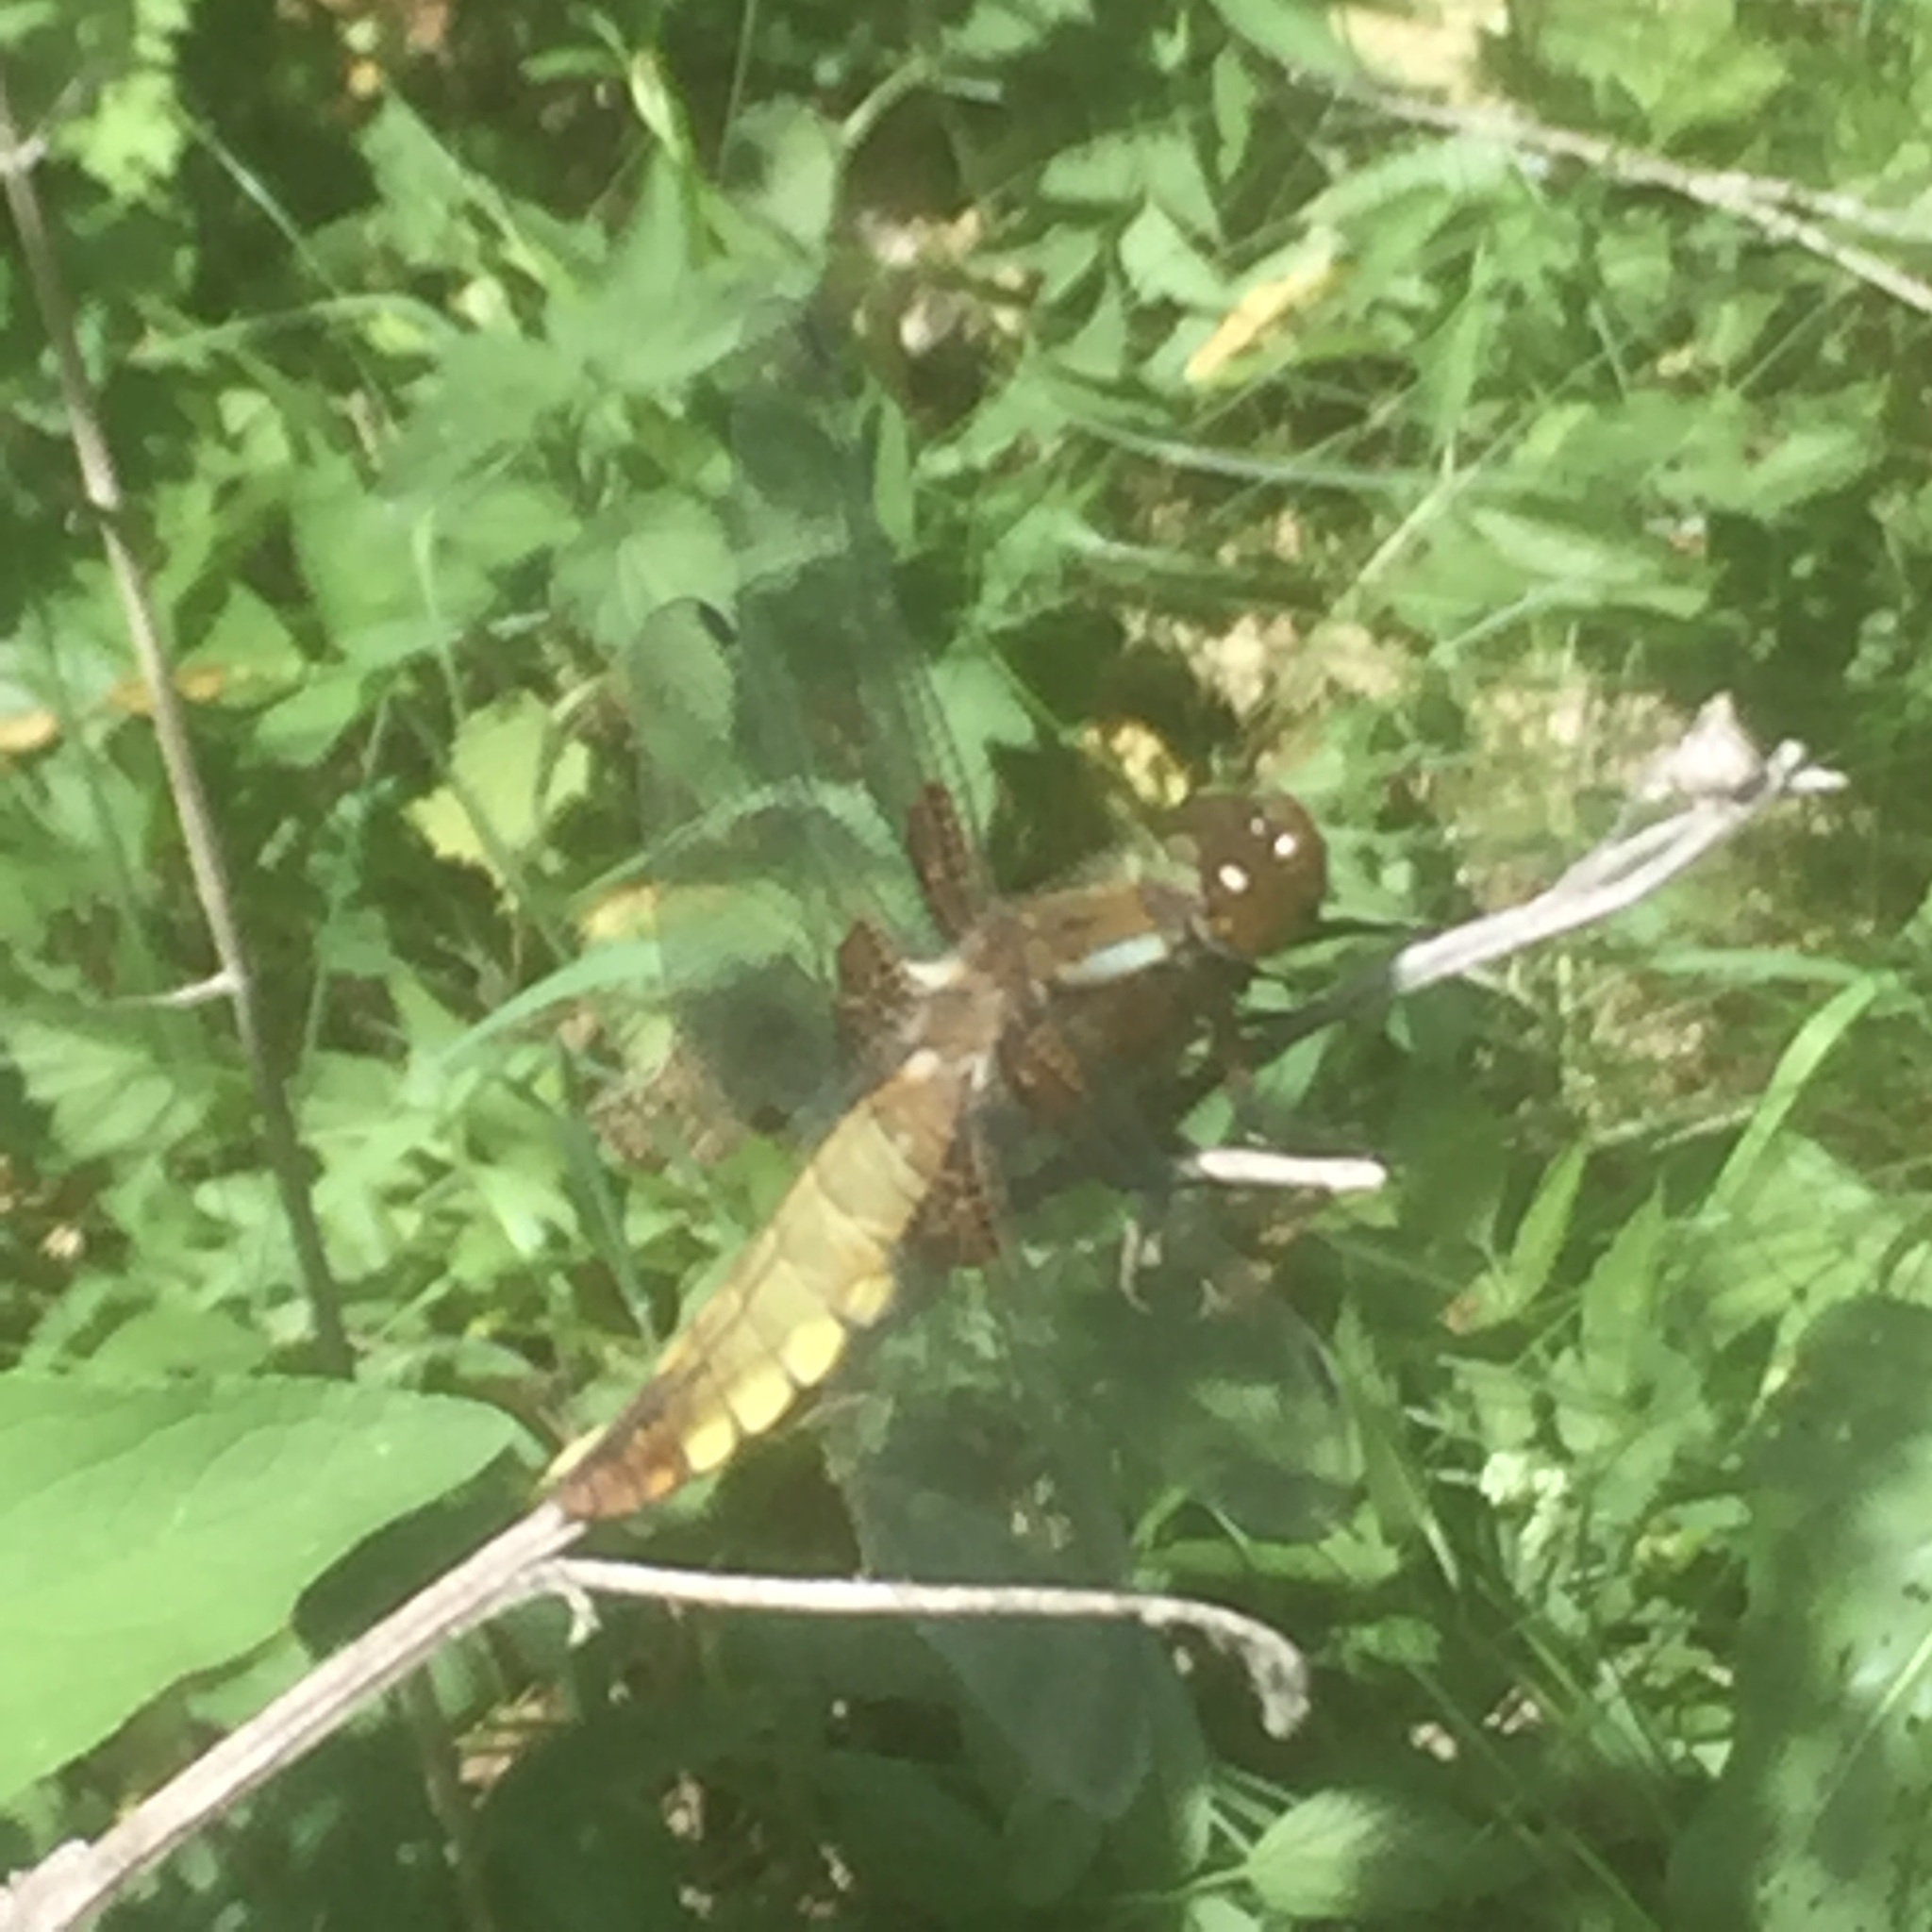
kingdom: Animalia
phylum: Arthropoda
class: Insecta
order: Odonata
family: Libellulidae
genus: Libellula
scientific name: Libellula depressa
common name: Broad-bodied chaser
